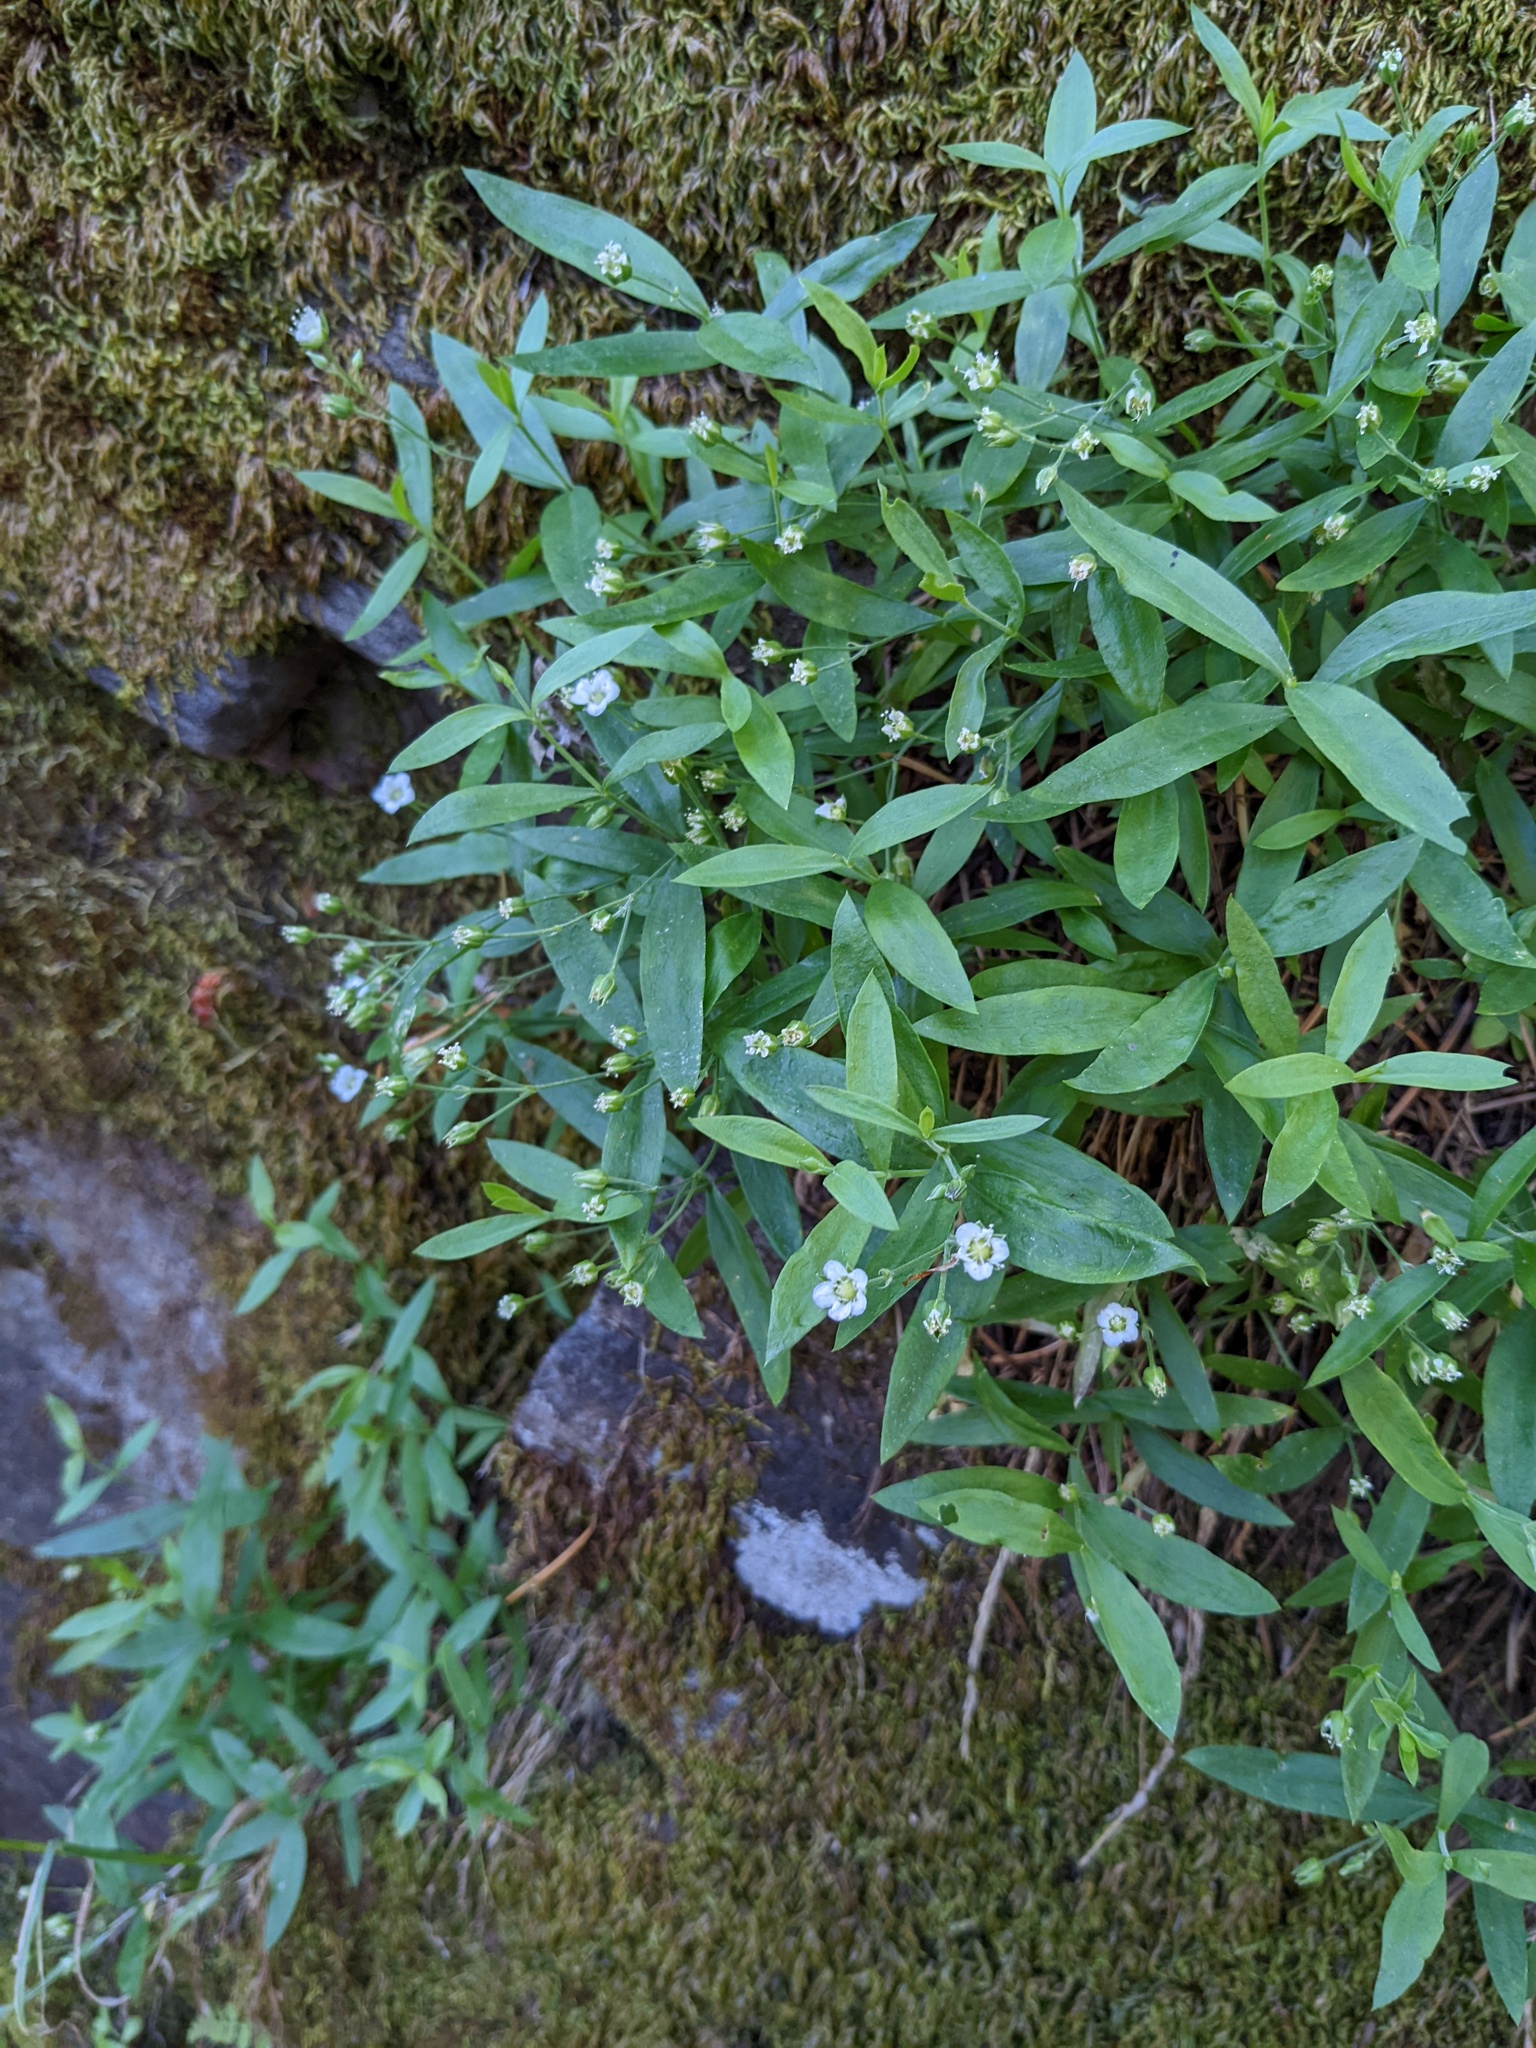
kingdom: Plantae
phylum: Tracheophyta
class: Magnoliopsida
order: Caryophyllales
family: Caryophyllaceae
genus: Moehringia
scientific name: Moehringia macrophylla
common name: Big-leaf sandwort
